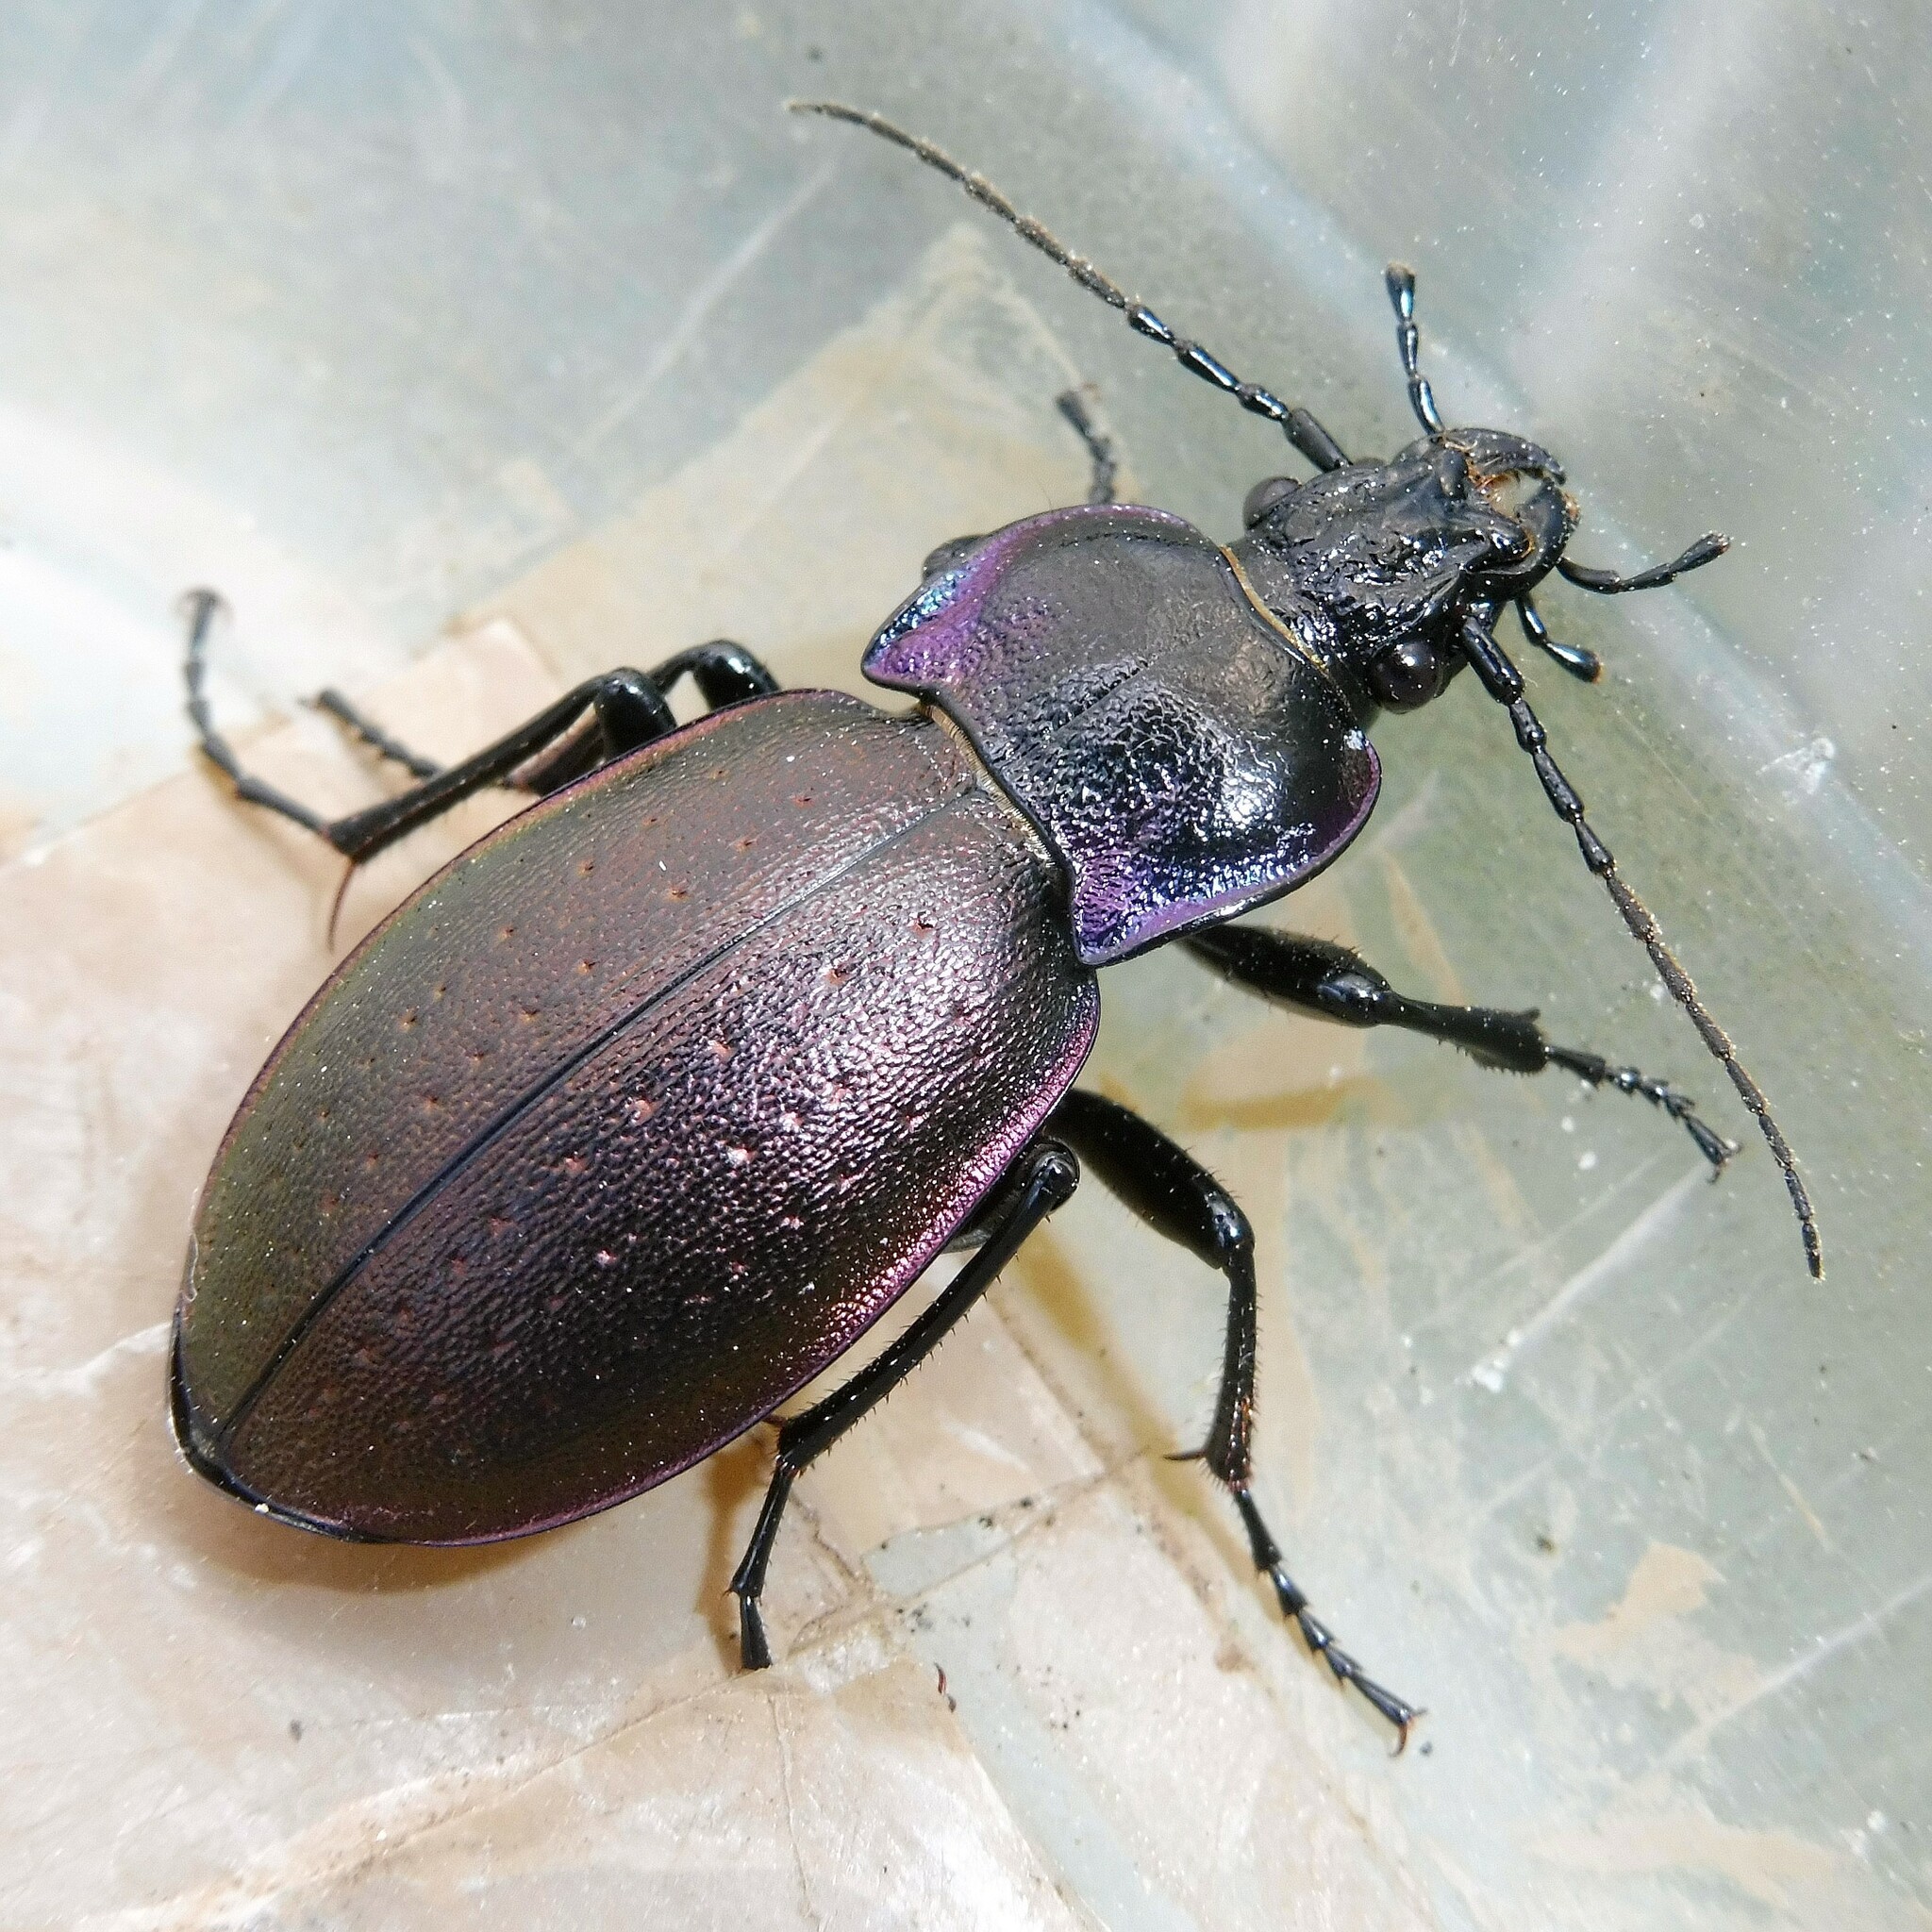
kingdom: Animalia
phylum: Arthropoda
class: Insecta
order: Coleoptera
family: Carabidae
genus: Carabus
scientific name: Carabus nemoralis
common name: European ground beetle
